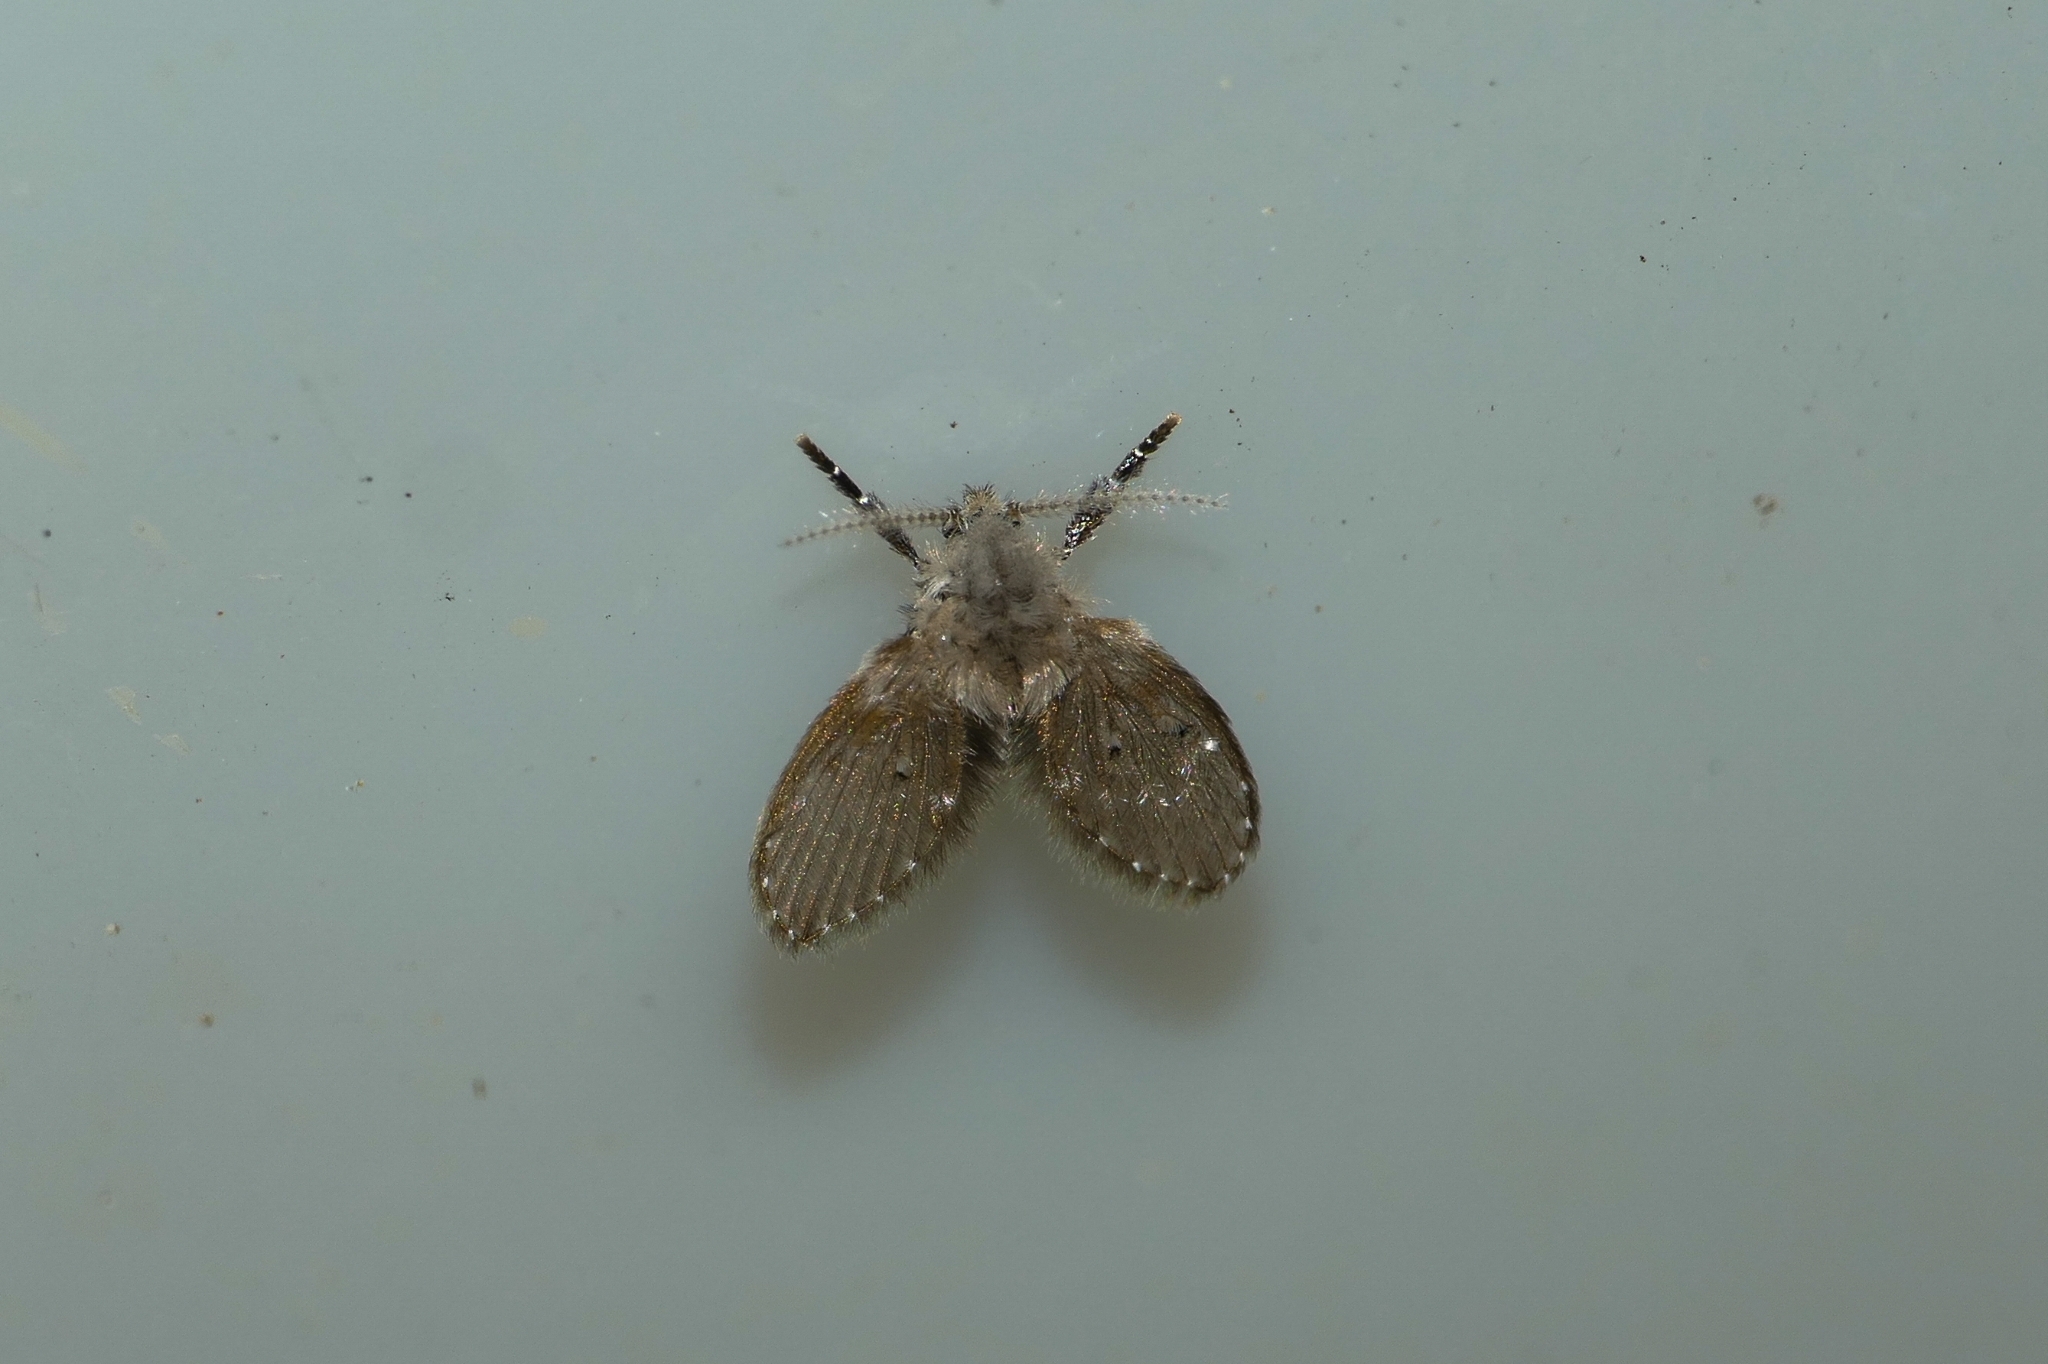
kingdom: Animalia
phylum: Arthropoda
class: Insecta
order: Diptera
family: Psychodidae
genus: Clogmia
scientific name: Clogmia albipunctatus
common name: White-spotted moth fly
